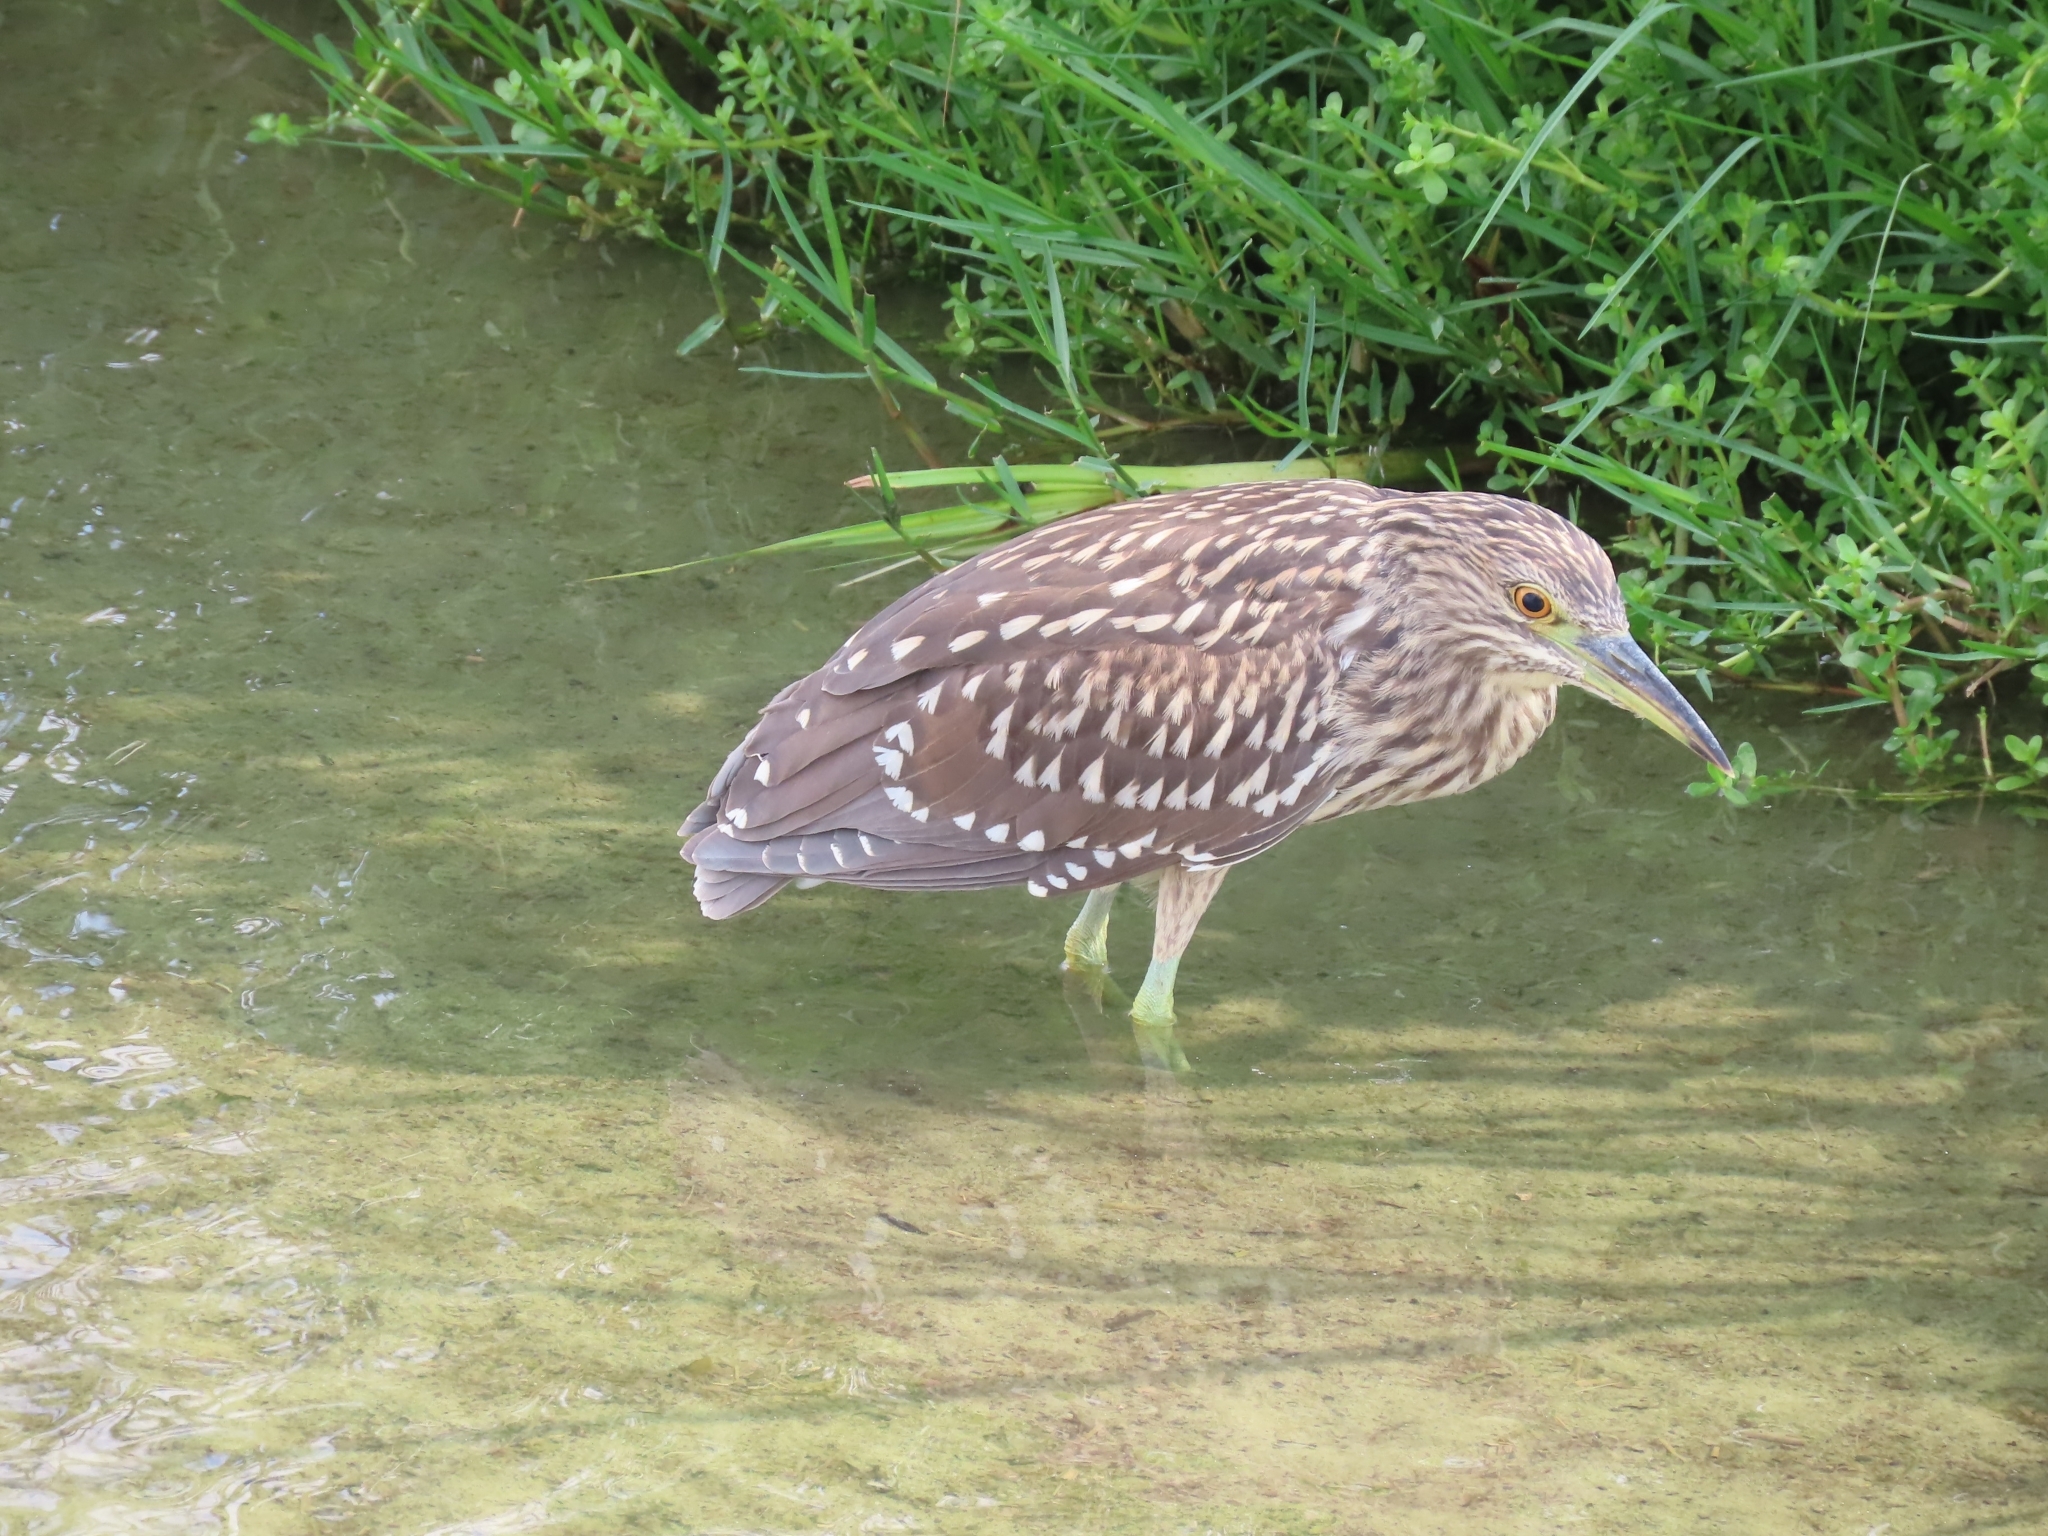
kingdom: Animalia
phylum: Chordata
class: Aves
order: Pelecaniformes
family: Ardeidae
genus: Nycticorax
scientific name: Nycticorax nycticorax
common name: Black-crowned night heron
